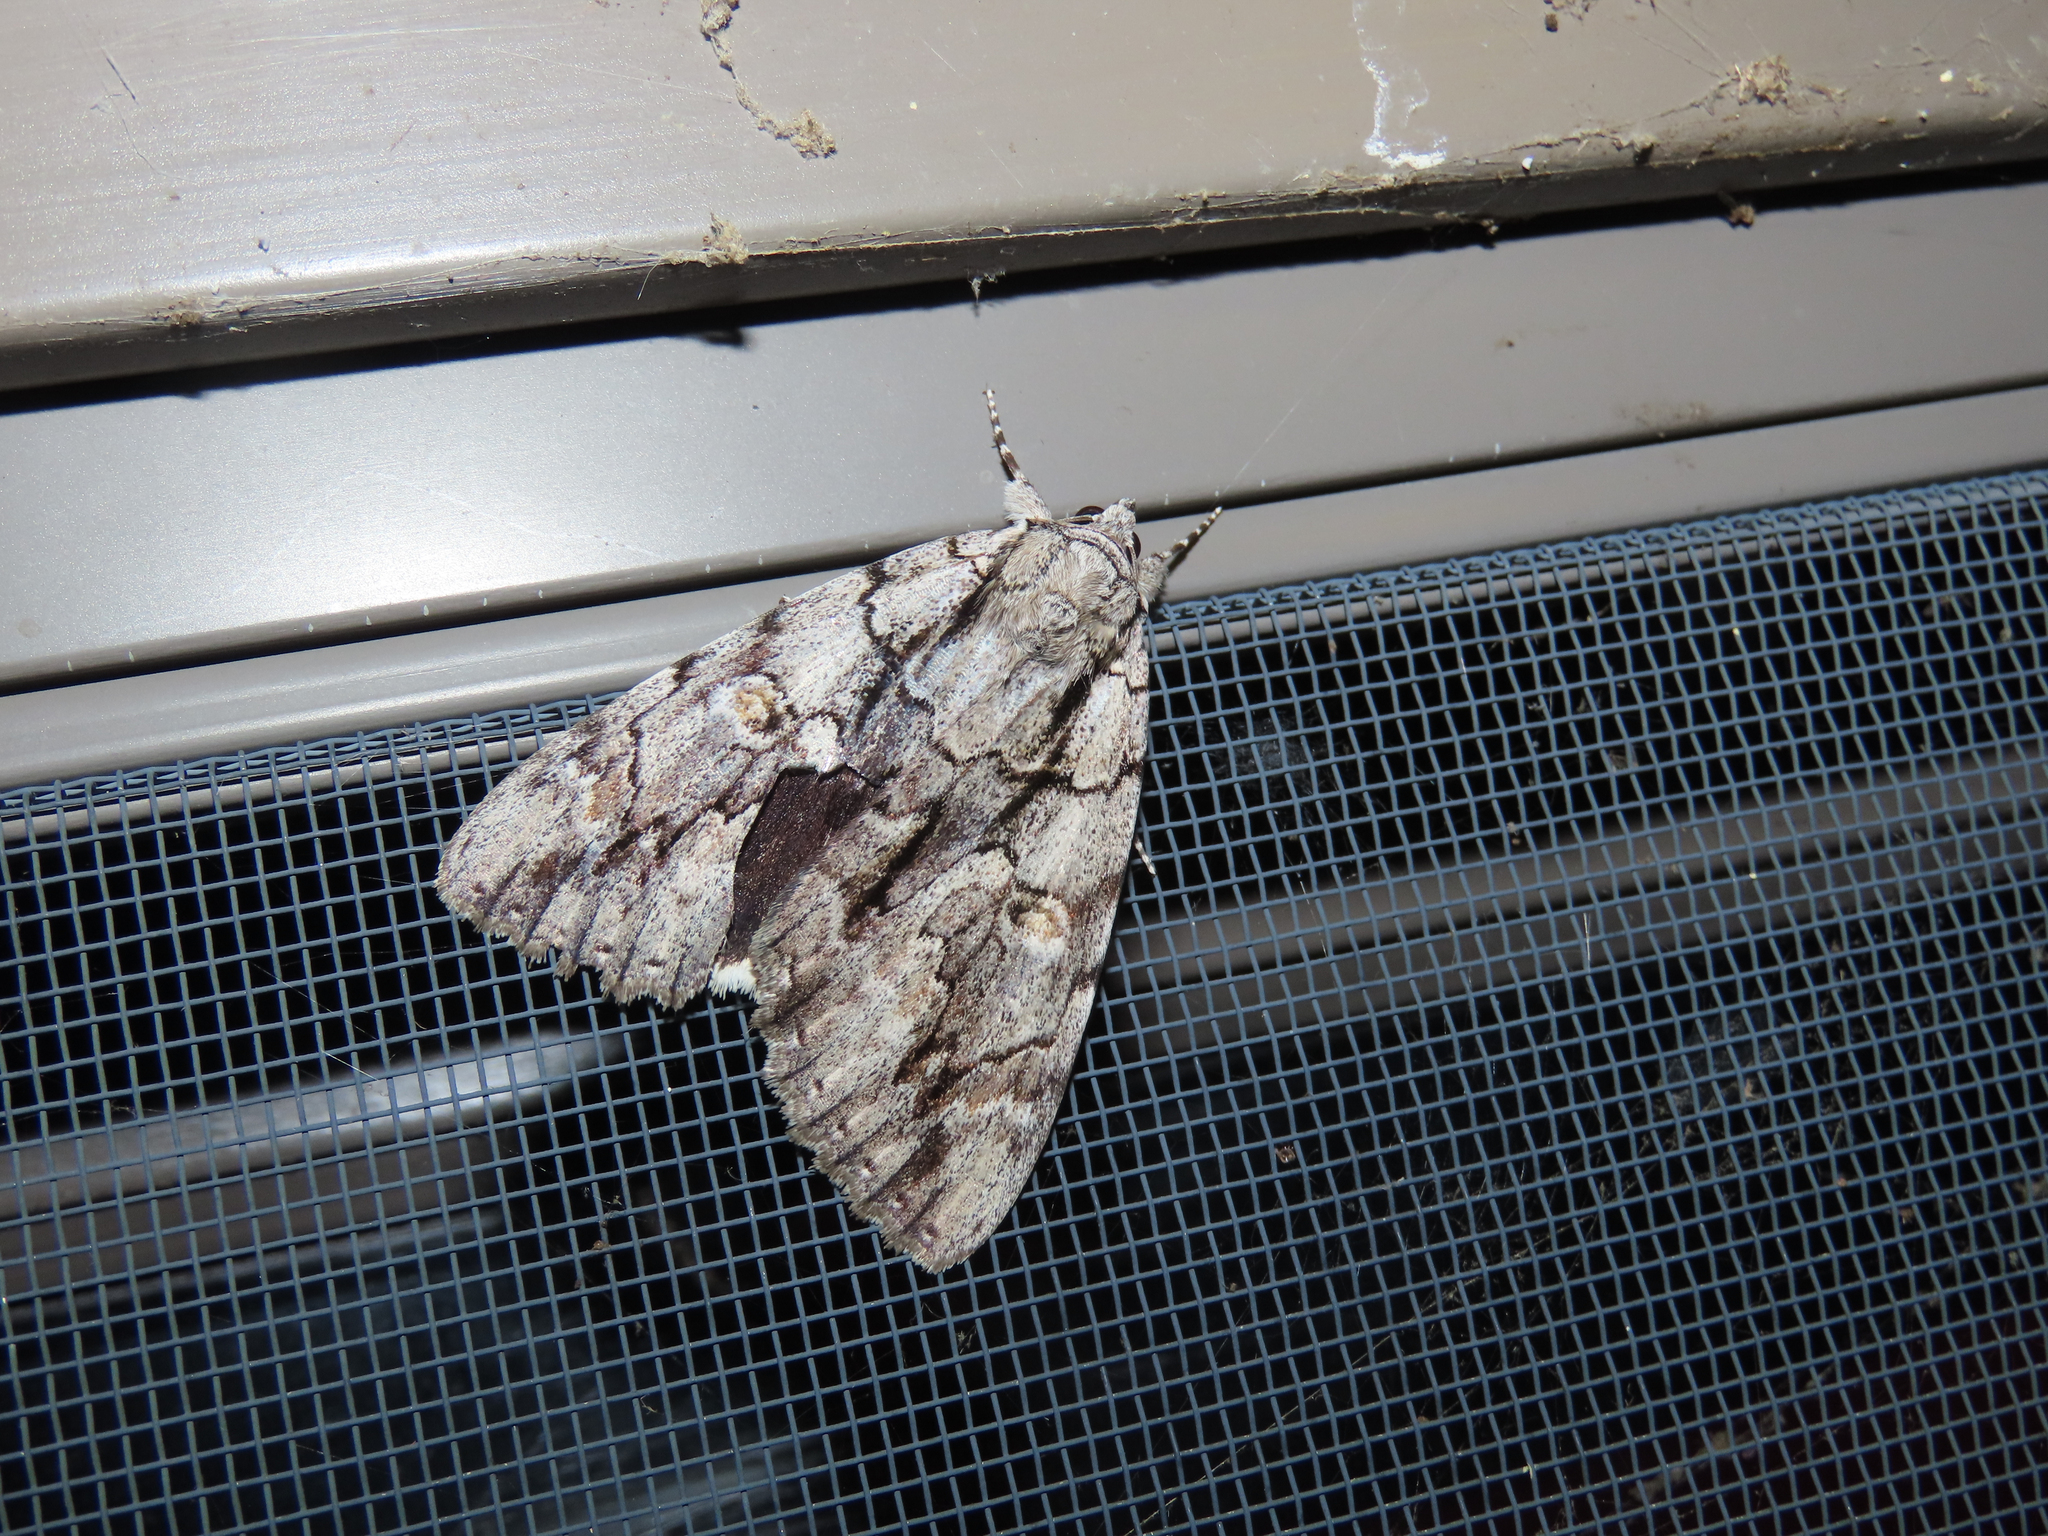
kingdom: Animalia
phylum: Arthropoda
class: Insecta
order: Lepidoptera
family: Erebidae
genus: Catocala
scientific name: Catocala retecta
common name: Yellow-gray underwing
